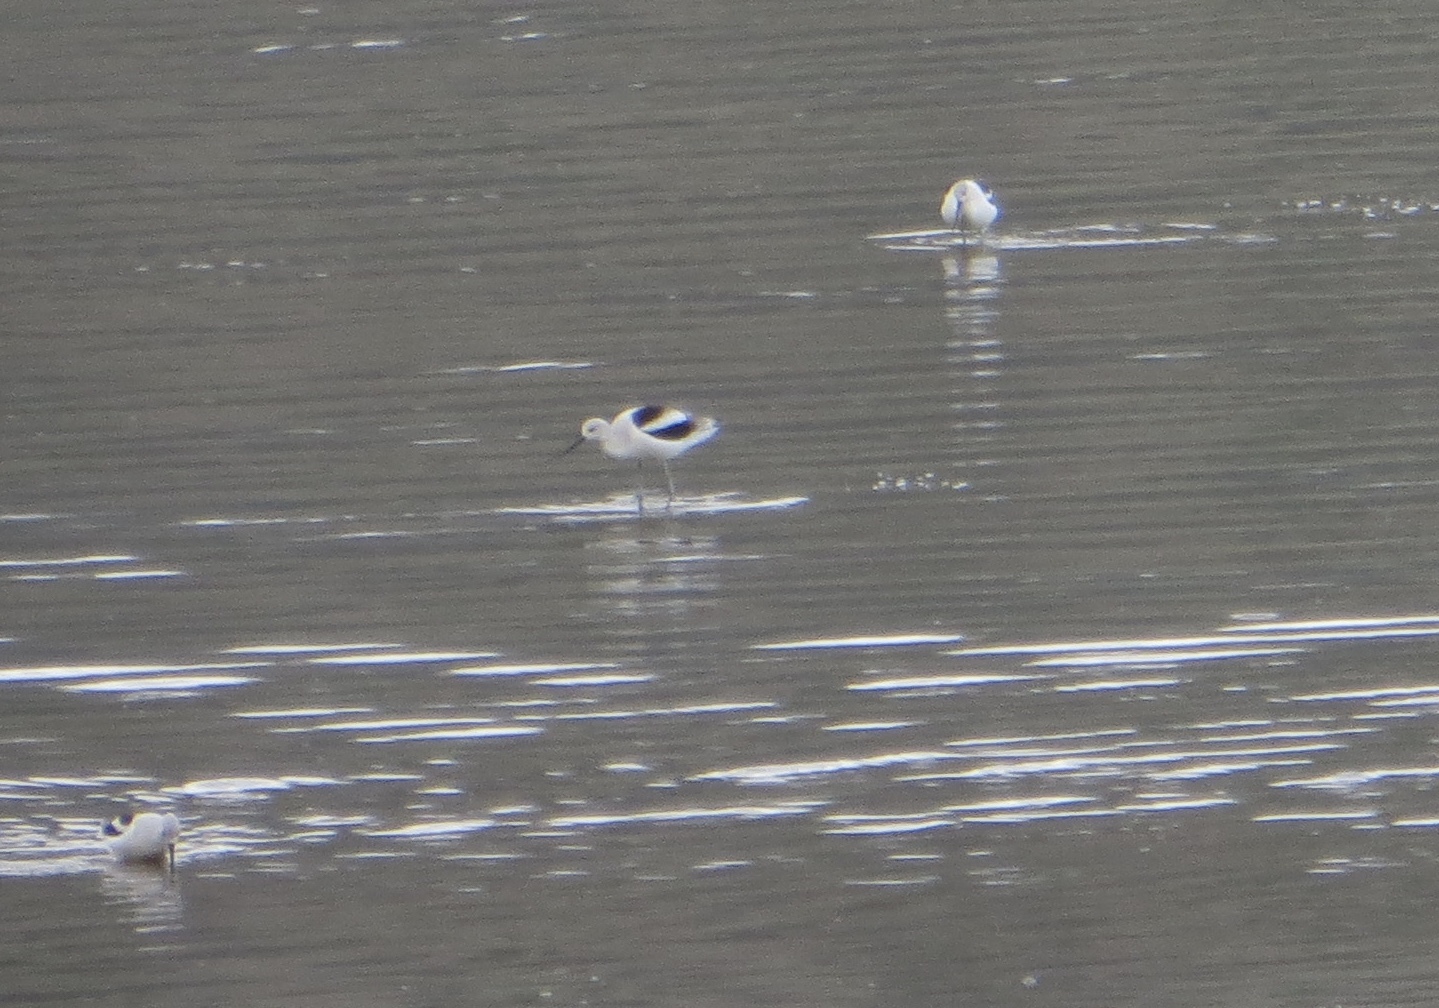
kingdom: Animalia
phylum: Chordata
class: Aves
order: Charadriiformes
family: Recurvirostridae
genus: Recurvirostra
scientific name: Recurvirostra americana
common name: American avocet
